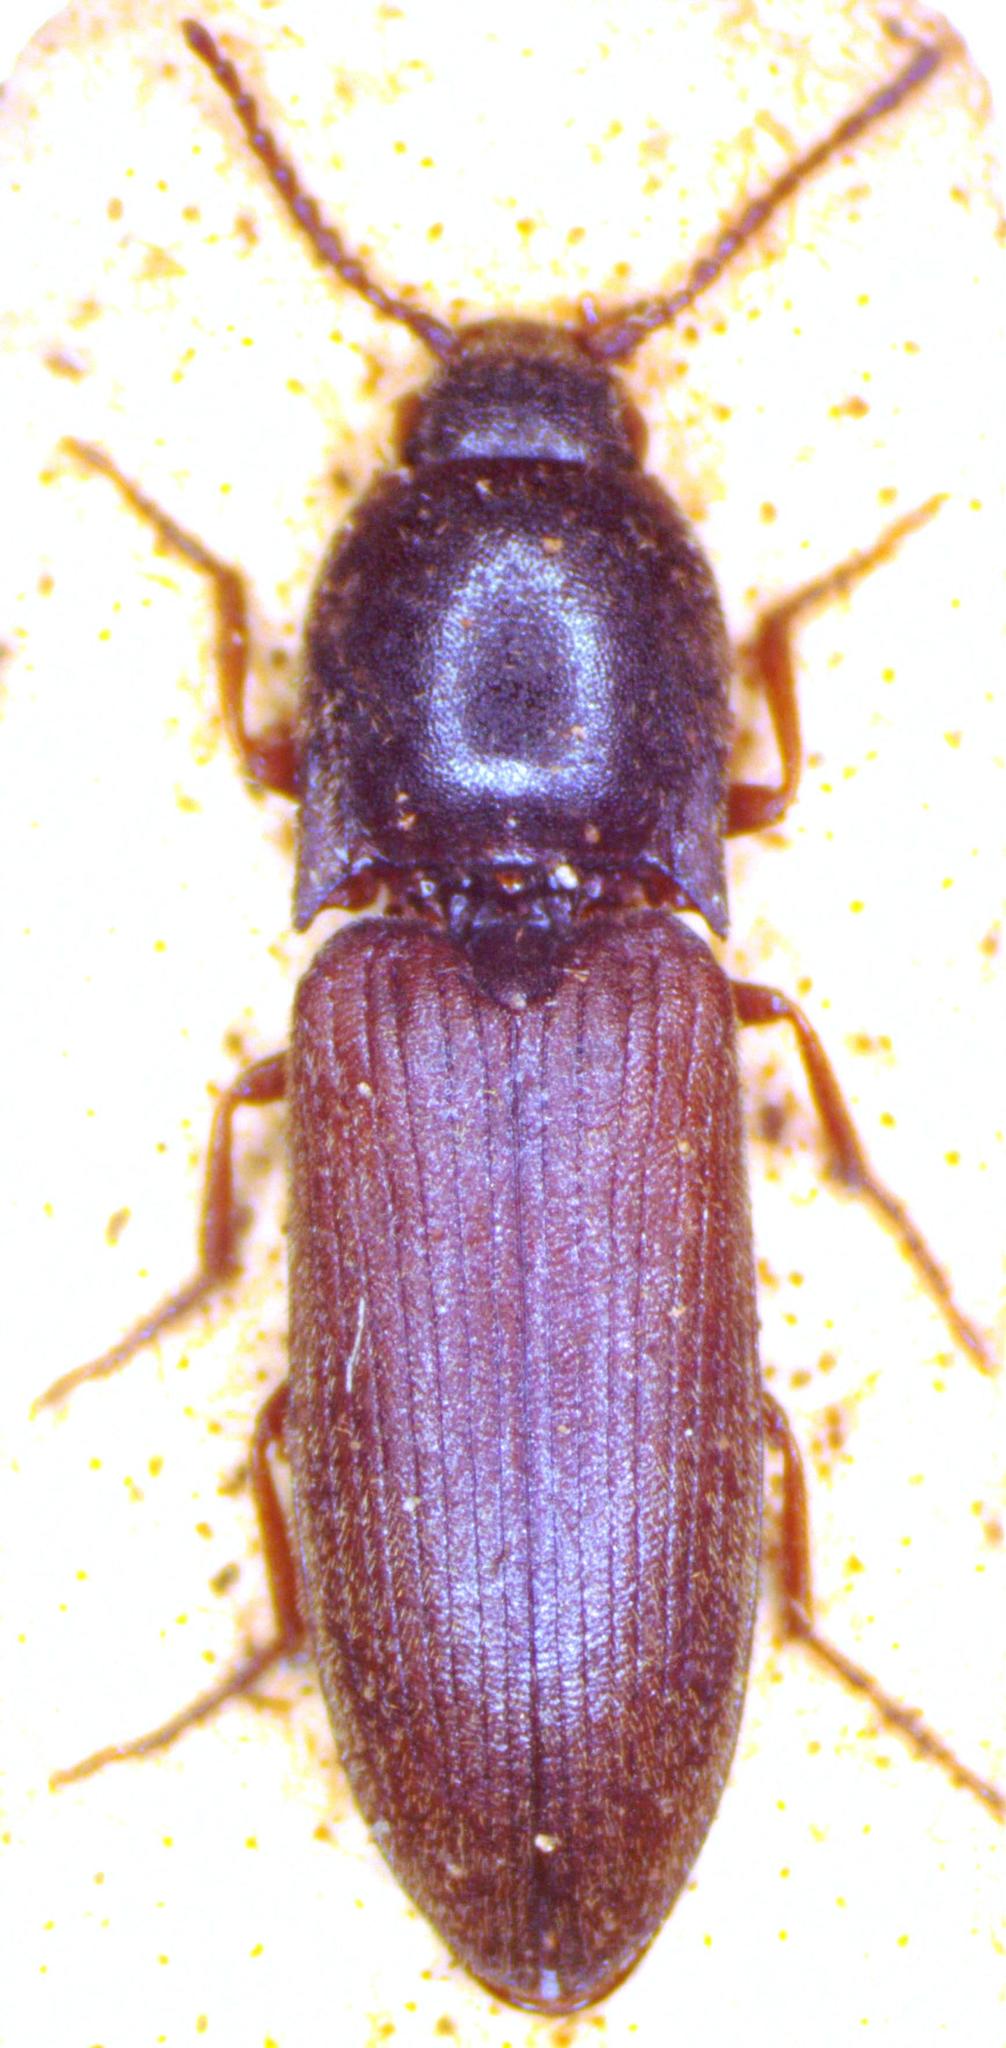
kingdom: Animalia
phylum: Arthropoda
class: Insecta
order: Coleoptera
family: Elateridae
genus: Agriotes
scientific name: Agriotes ustulatus
